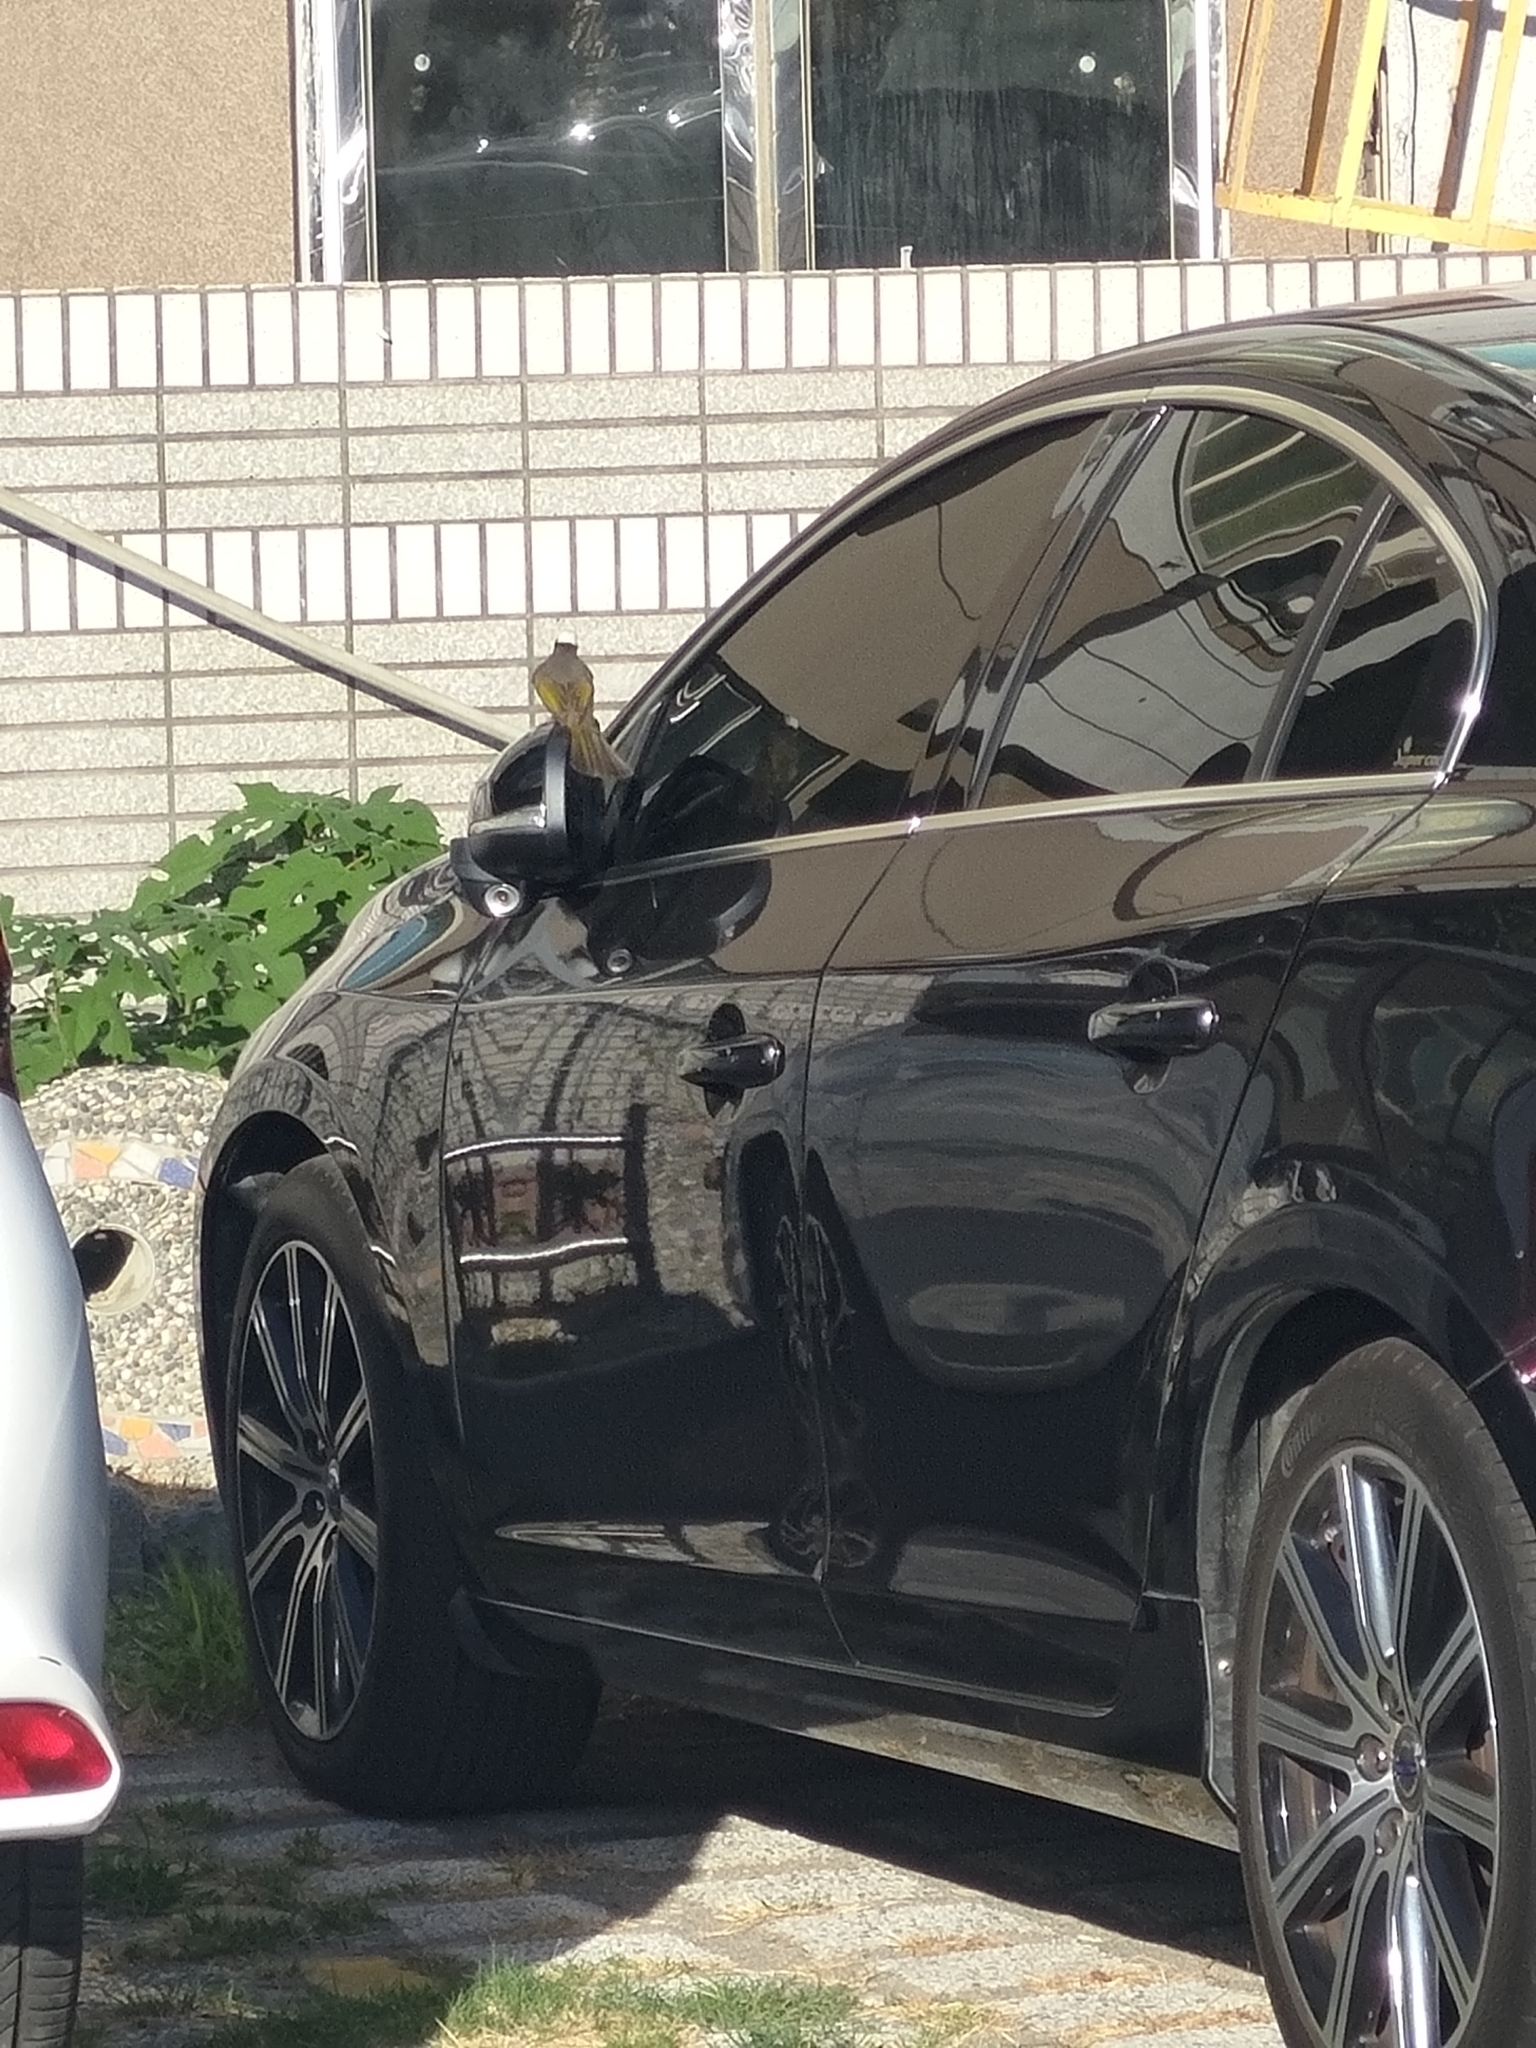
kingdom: Animalia
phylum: Chordata
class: Aves
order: Passeriformes
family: Pycnonotidae
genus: Pycnonotus
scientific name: Pycnonotus sinensis
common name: Light-vented bulbul
